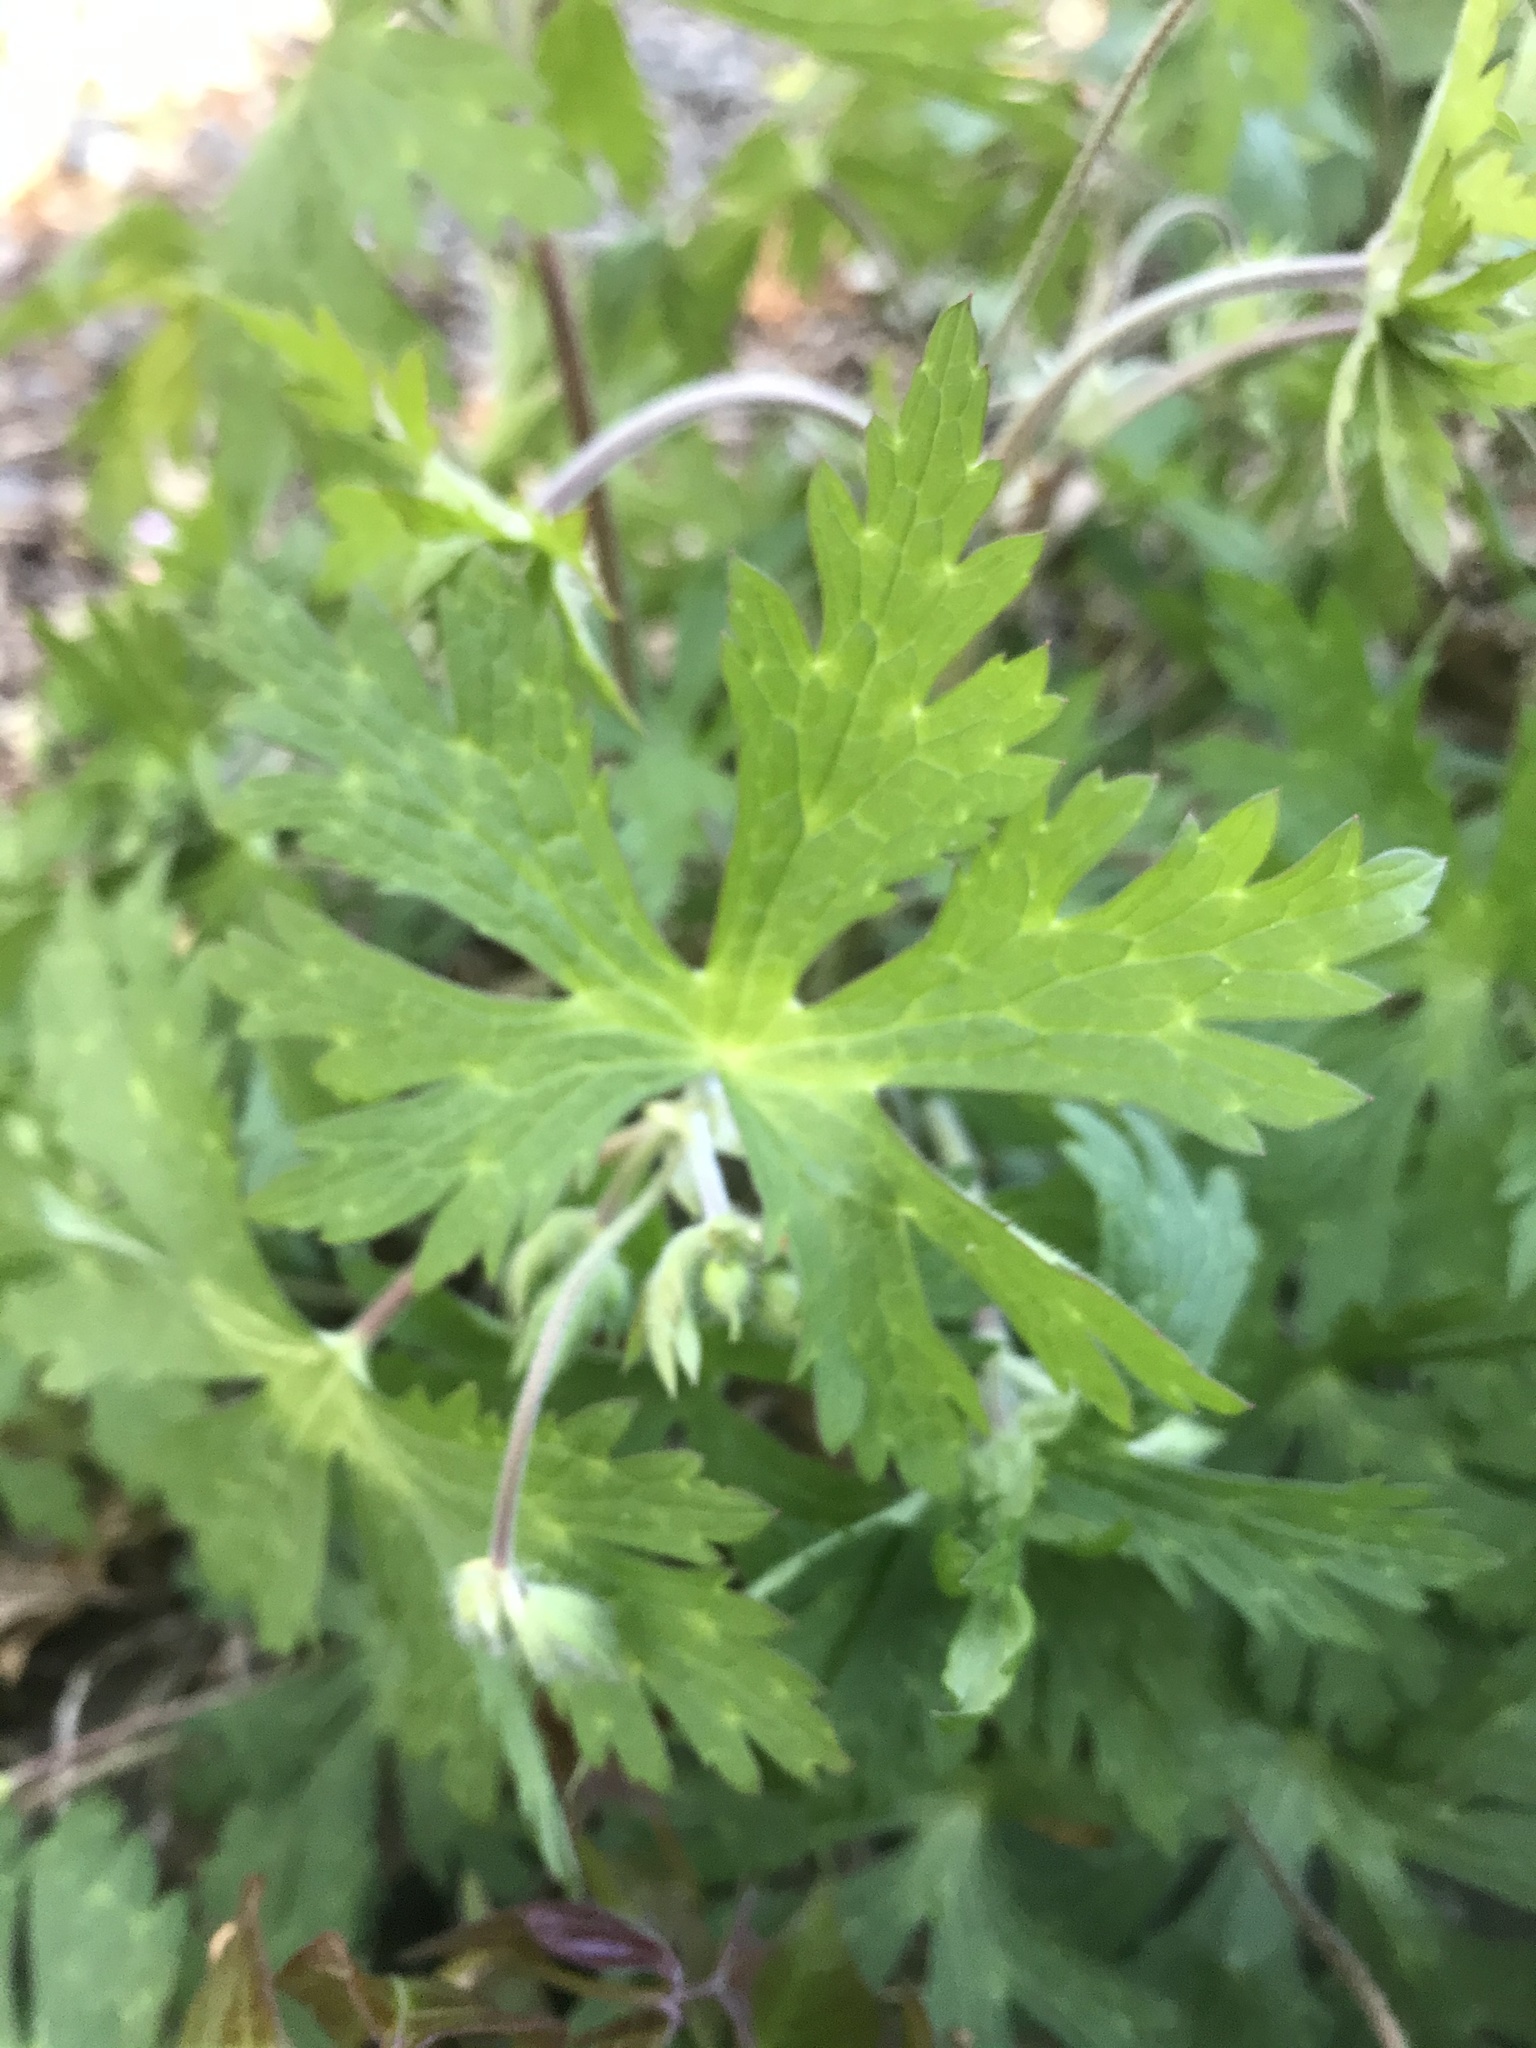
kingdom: Plantae
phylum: Tracheophyta
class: Magnoliopsida
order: Geraniales
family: Geraniaceae
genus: Geranium
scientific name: Geranium maculatum
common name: Spotted geranium
